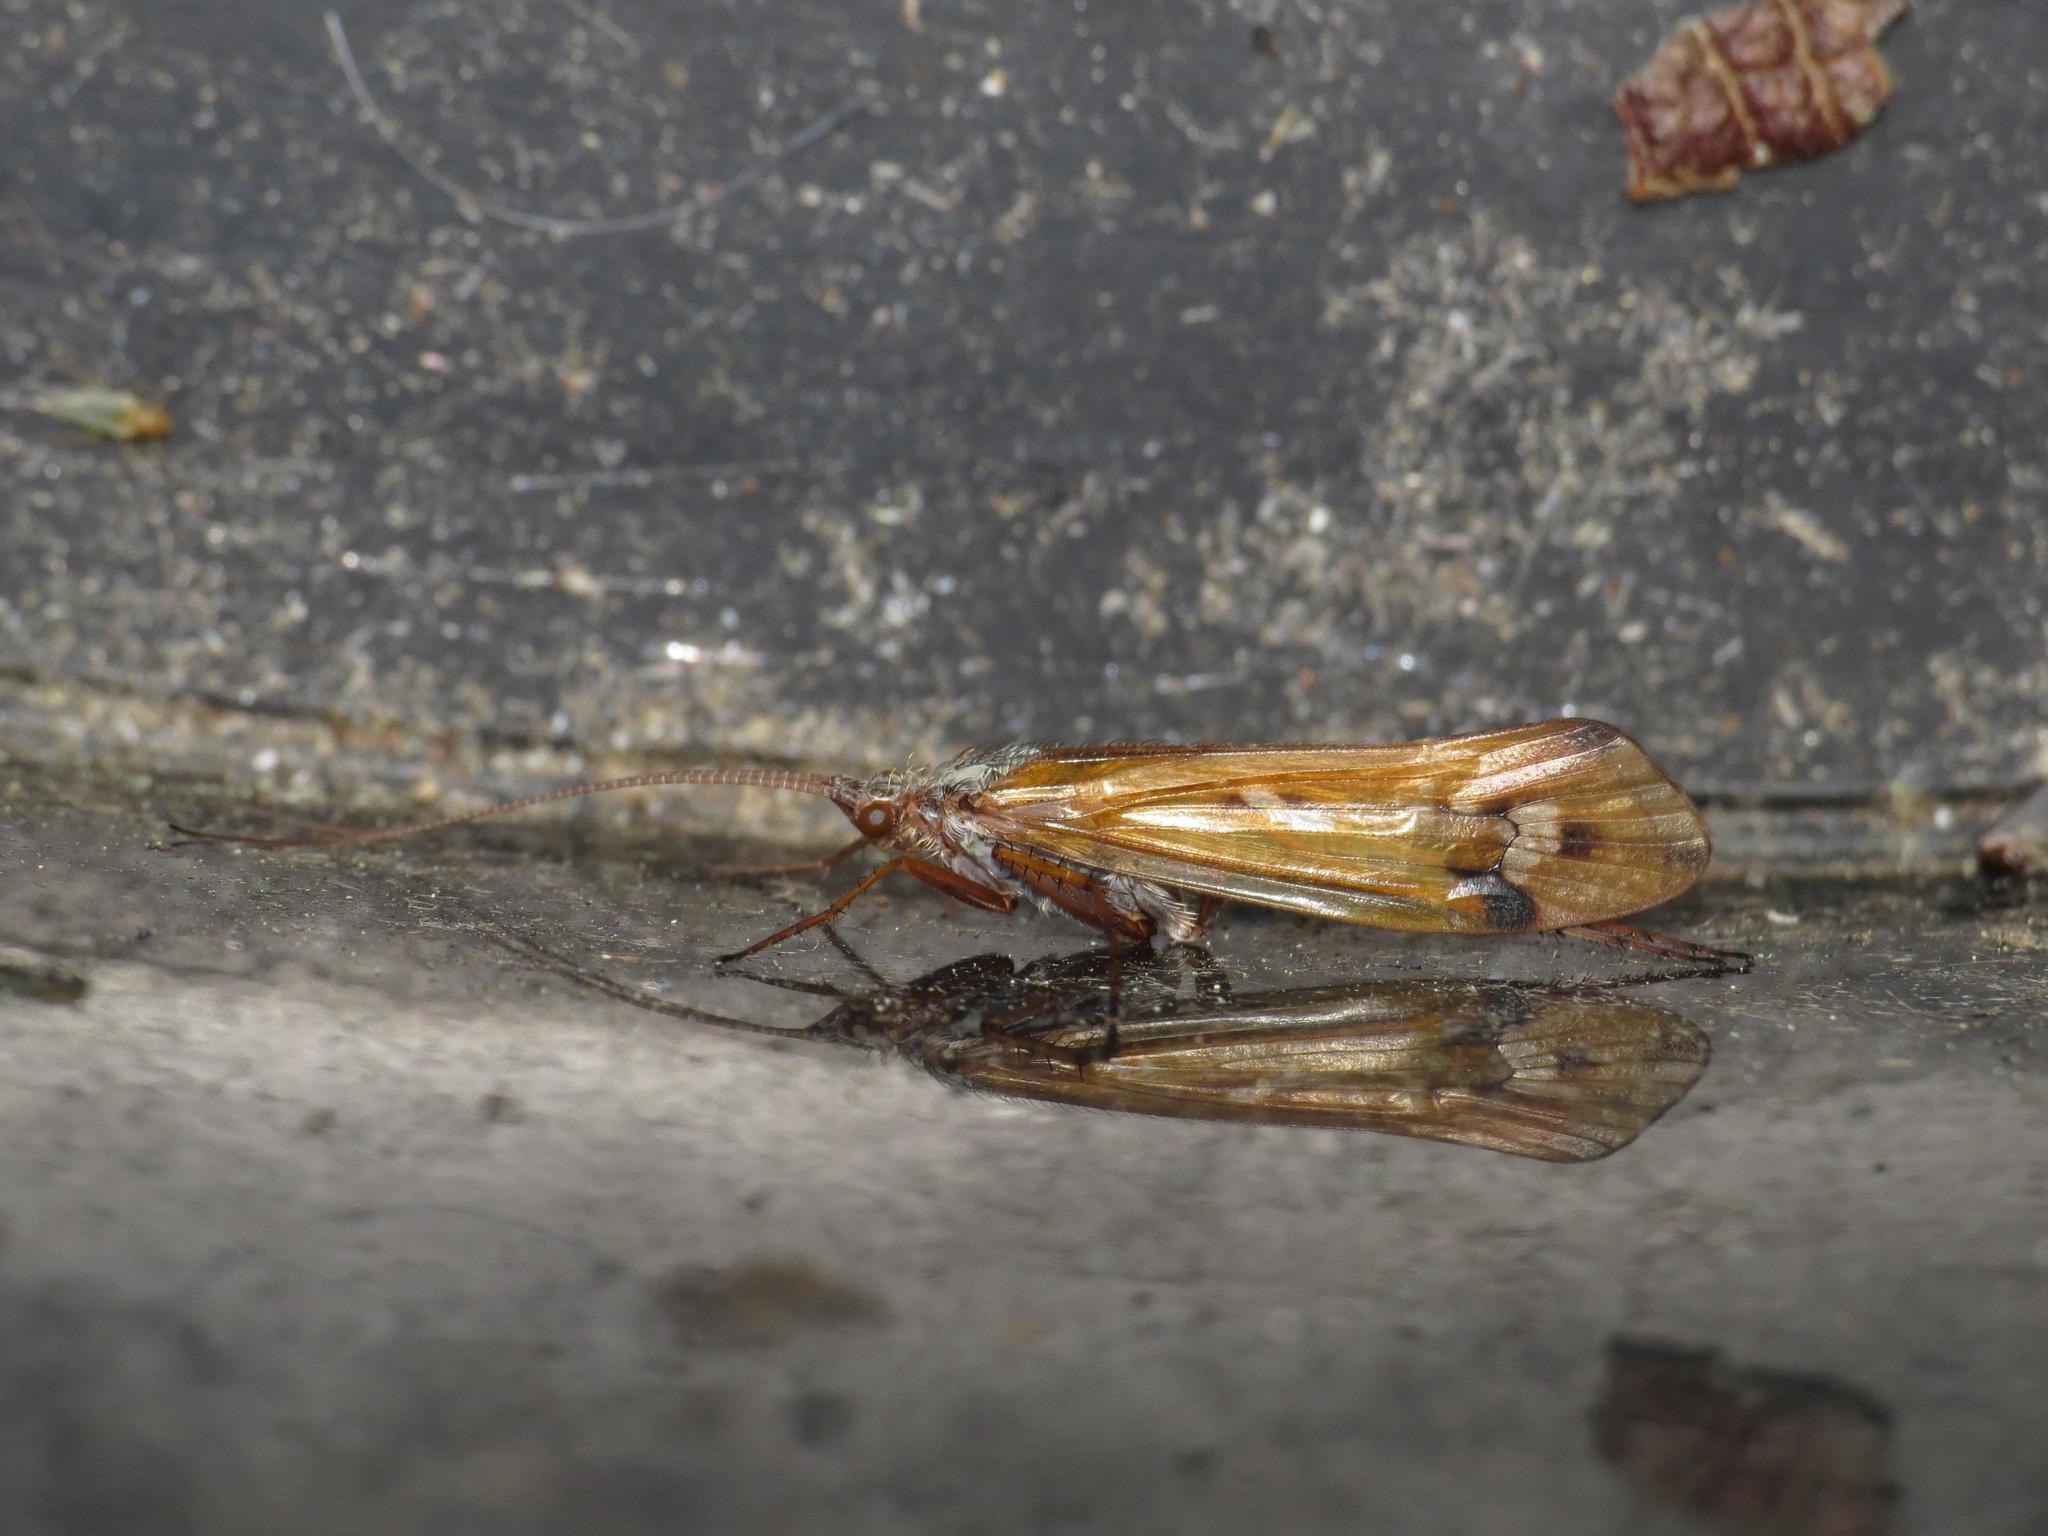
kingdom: Animalia
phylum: Arthropoda
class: Insecta
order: Trichoptera
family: Limnephilidae
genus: Limnephilus
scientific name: Limnephilus binotatus
